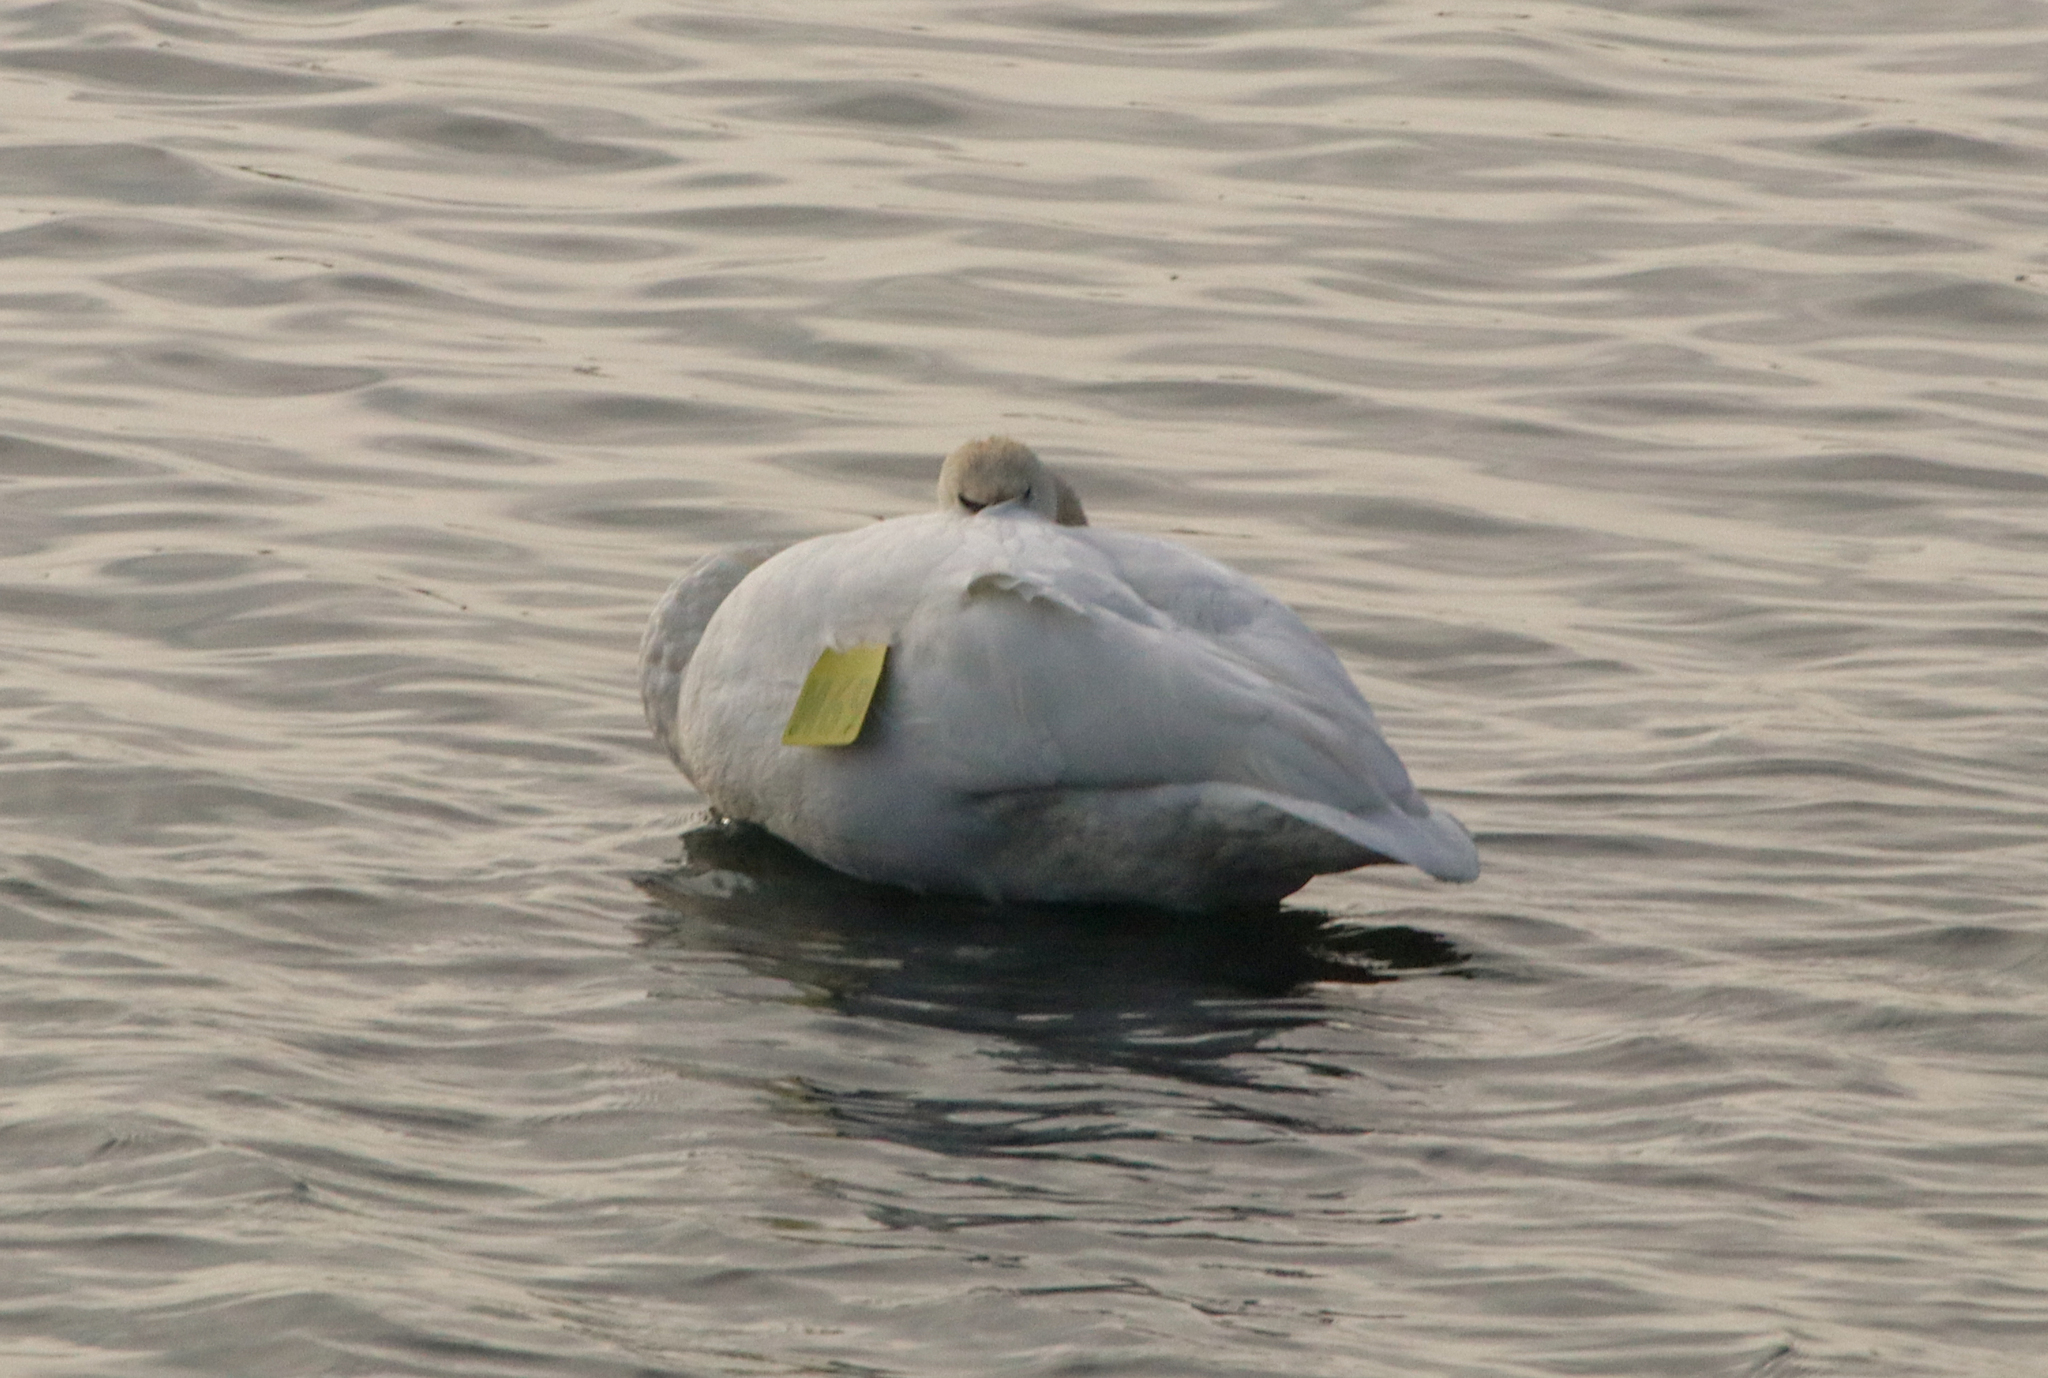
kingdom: Animalia
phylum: Chordata
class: Aves
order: Anseriformes
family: Anatidae
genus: Cygnus
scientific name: Cygnus buccinator
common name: Trumpeter swan
